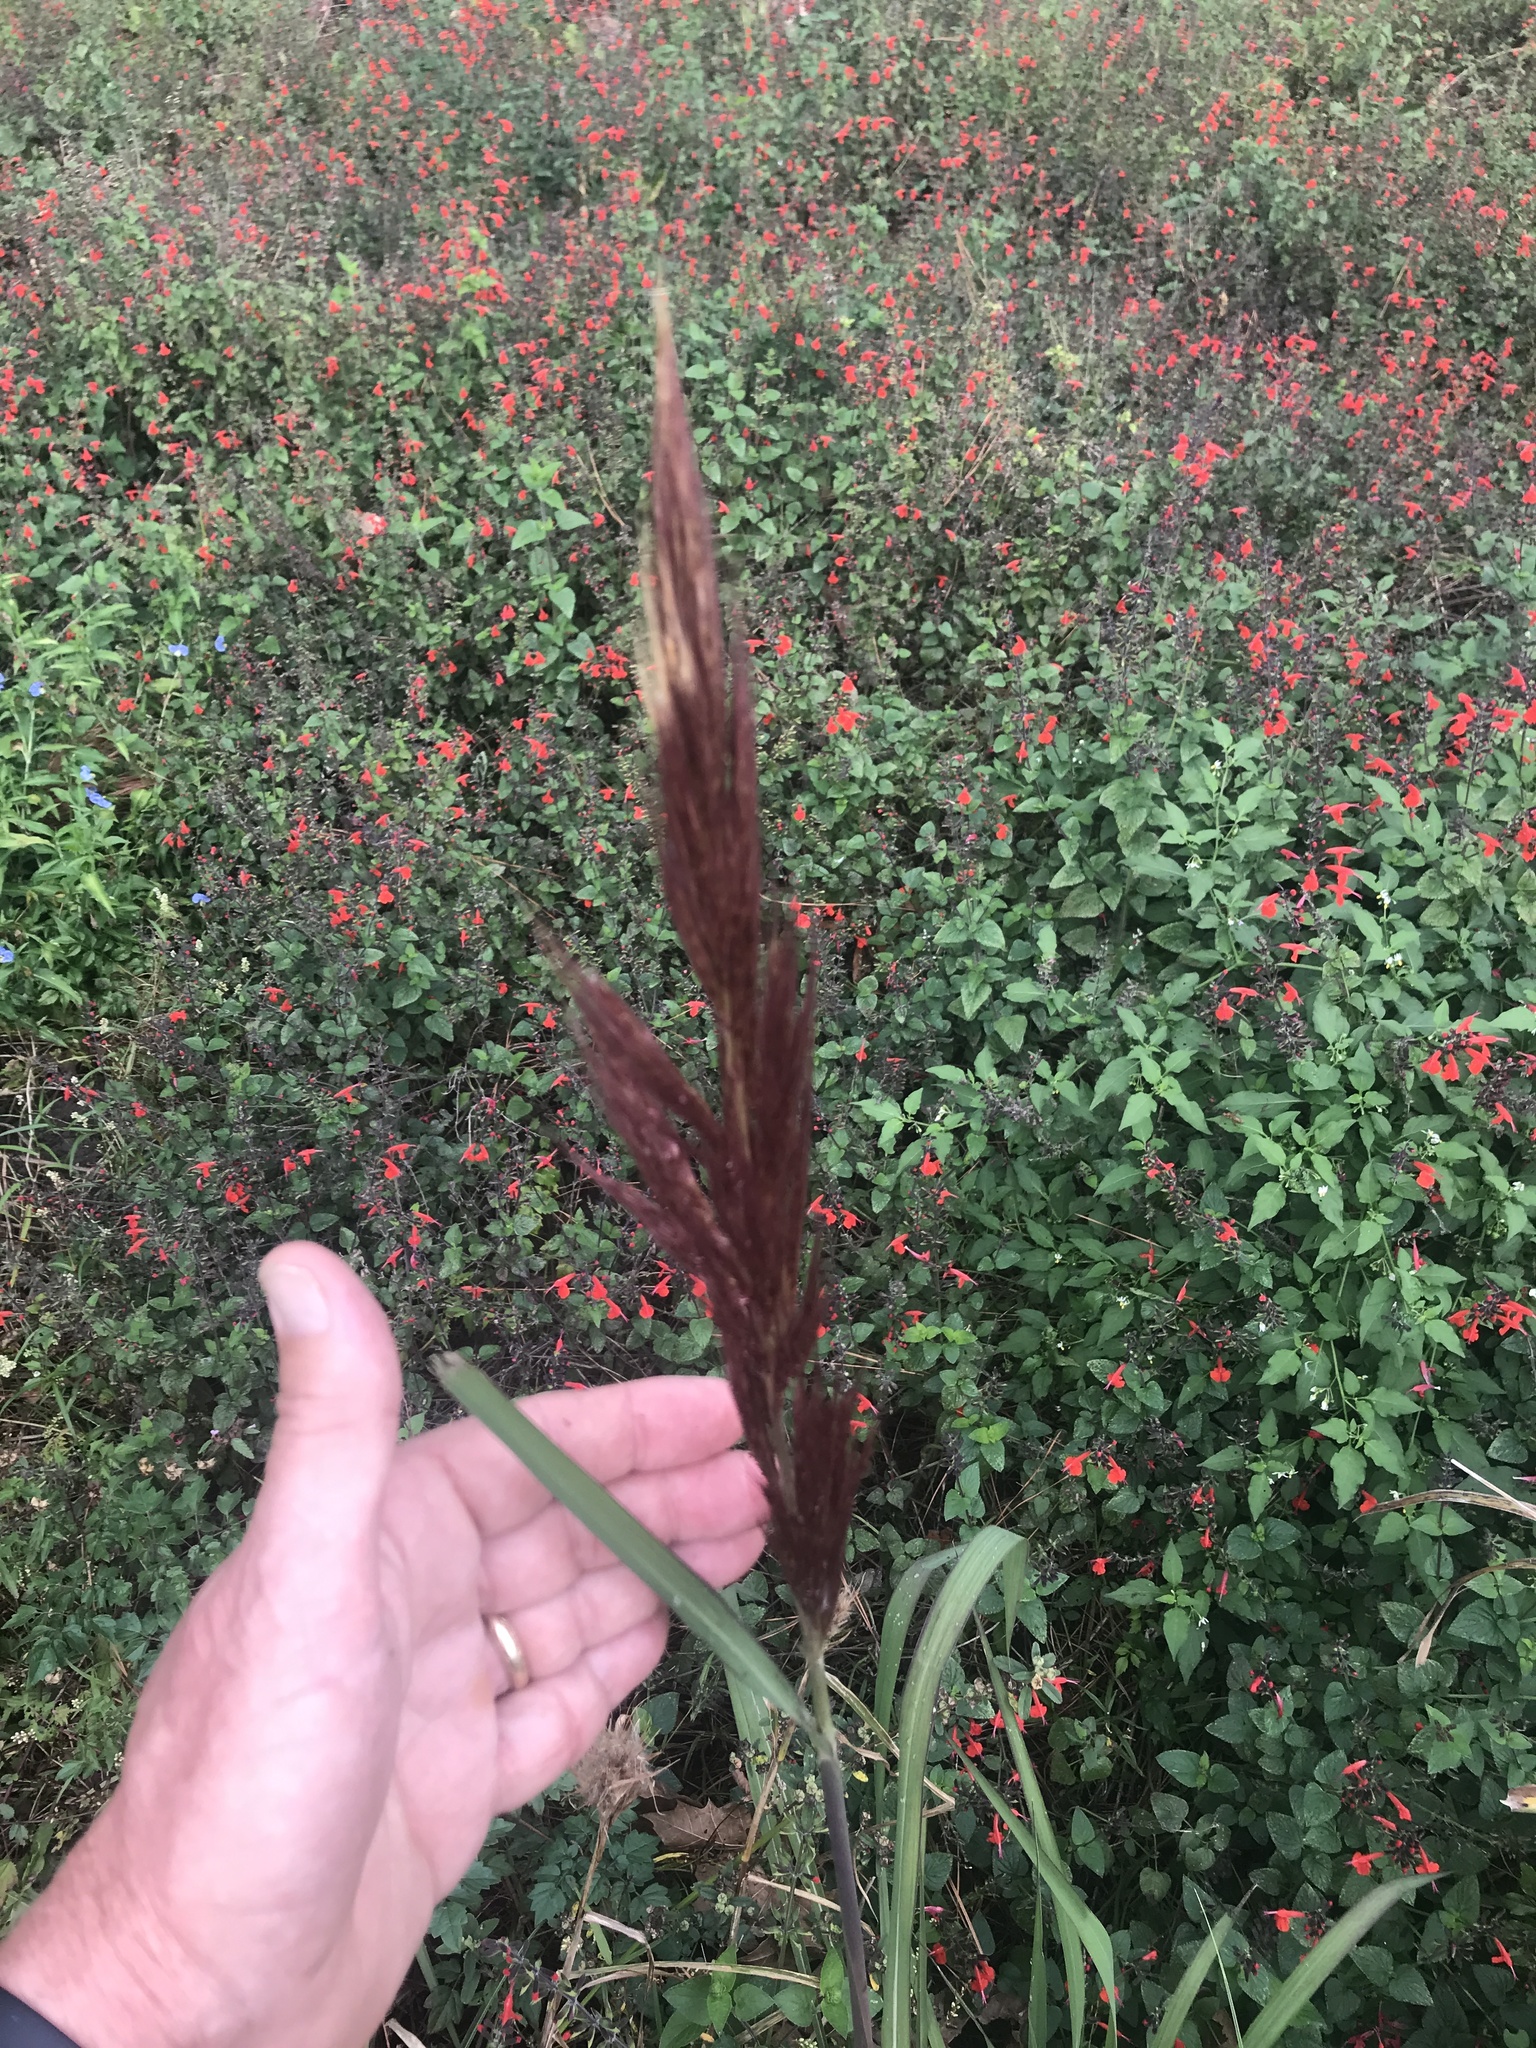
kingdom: Plantae
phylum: Tracheophyta
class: Liliopsida
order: Poales
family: Poaceae
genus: Erianthus
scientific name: Erianthus giganteus
